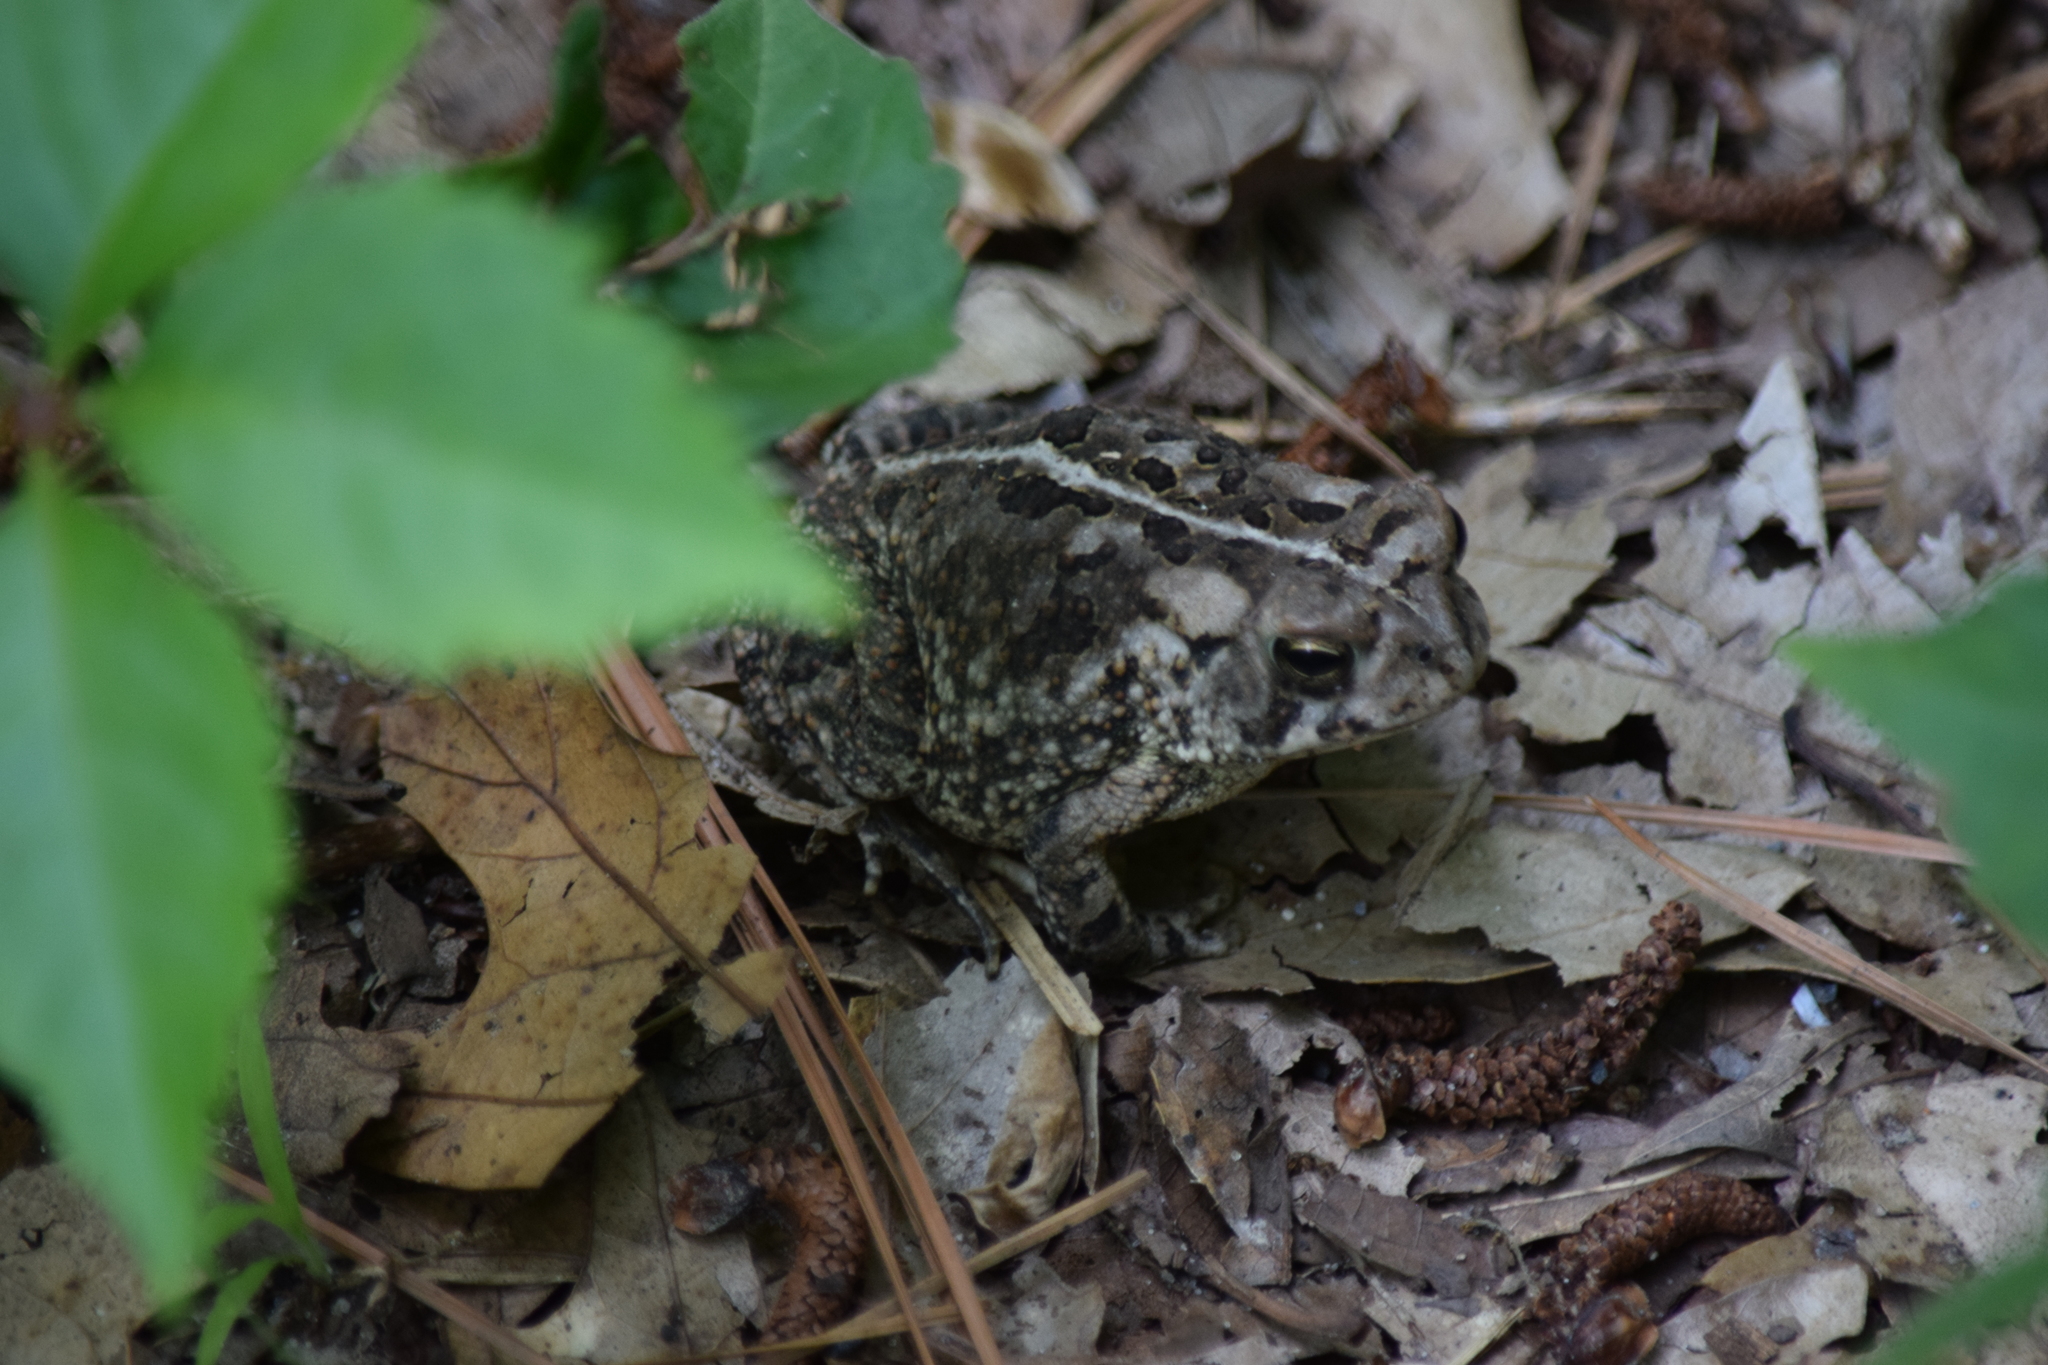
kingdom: Animalia
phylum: Chordata
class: Amphibia
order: Anura
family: Bufonidae
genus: Anaxyrus
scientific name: Anaxyrus fowleri
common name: Fowler's toad
